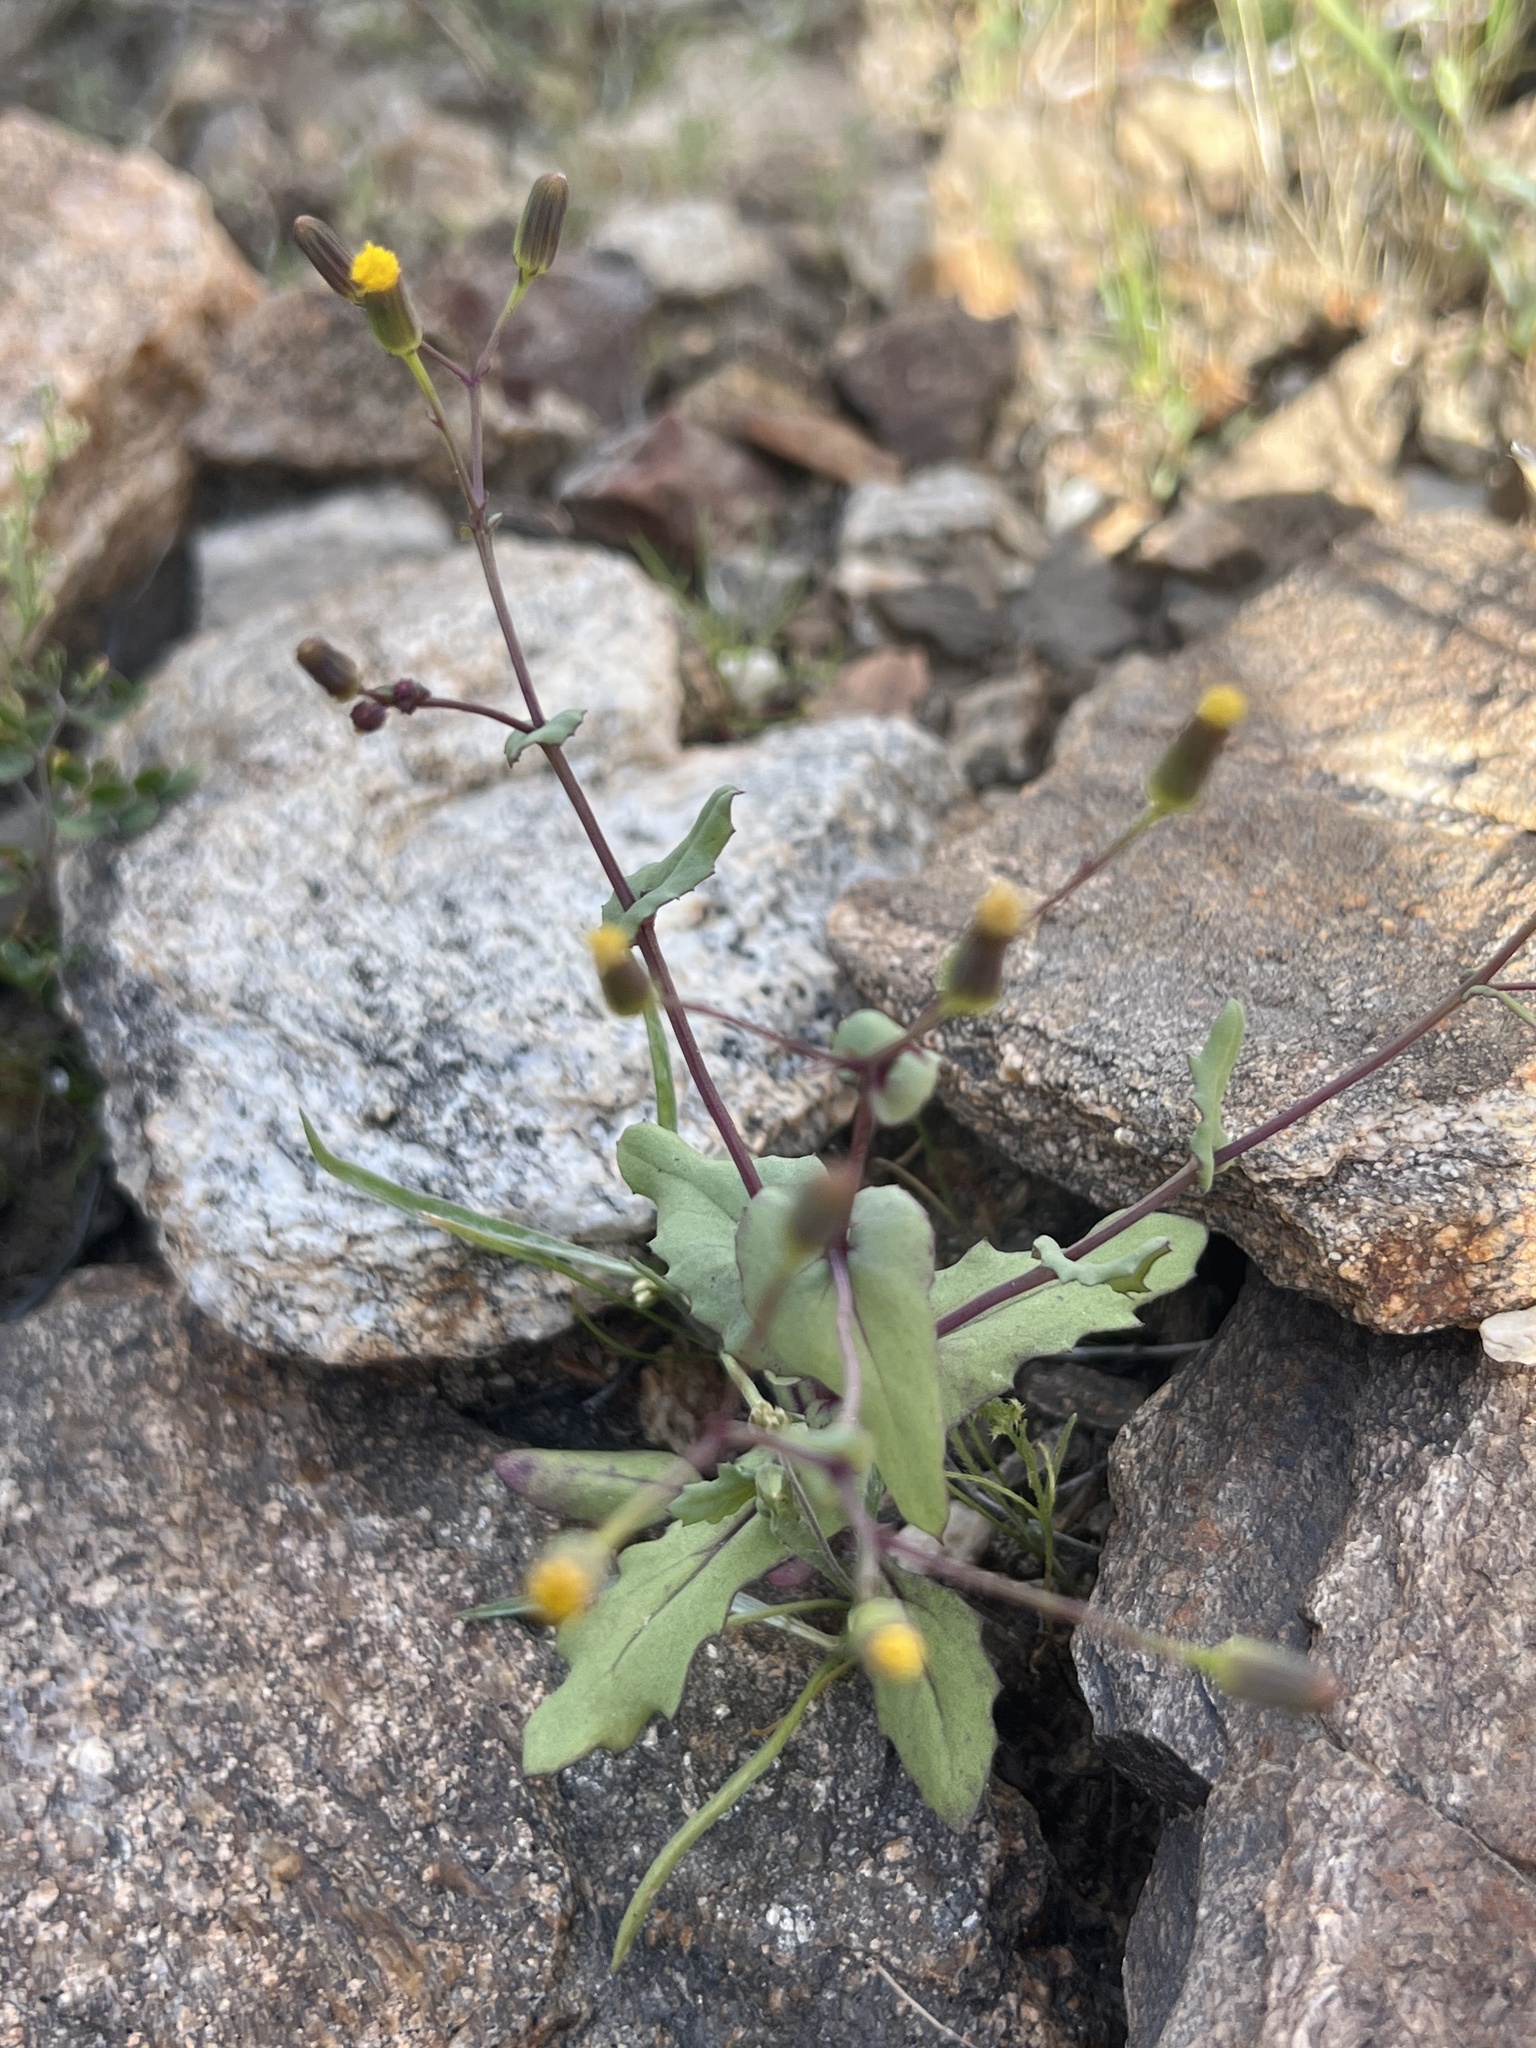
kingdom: Plantae
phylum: Tracheophyta
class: Magnoliopsida
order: Asterales
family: Asteraceae
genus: Senecio
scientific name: Senecio mohavensis
